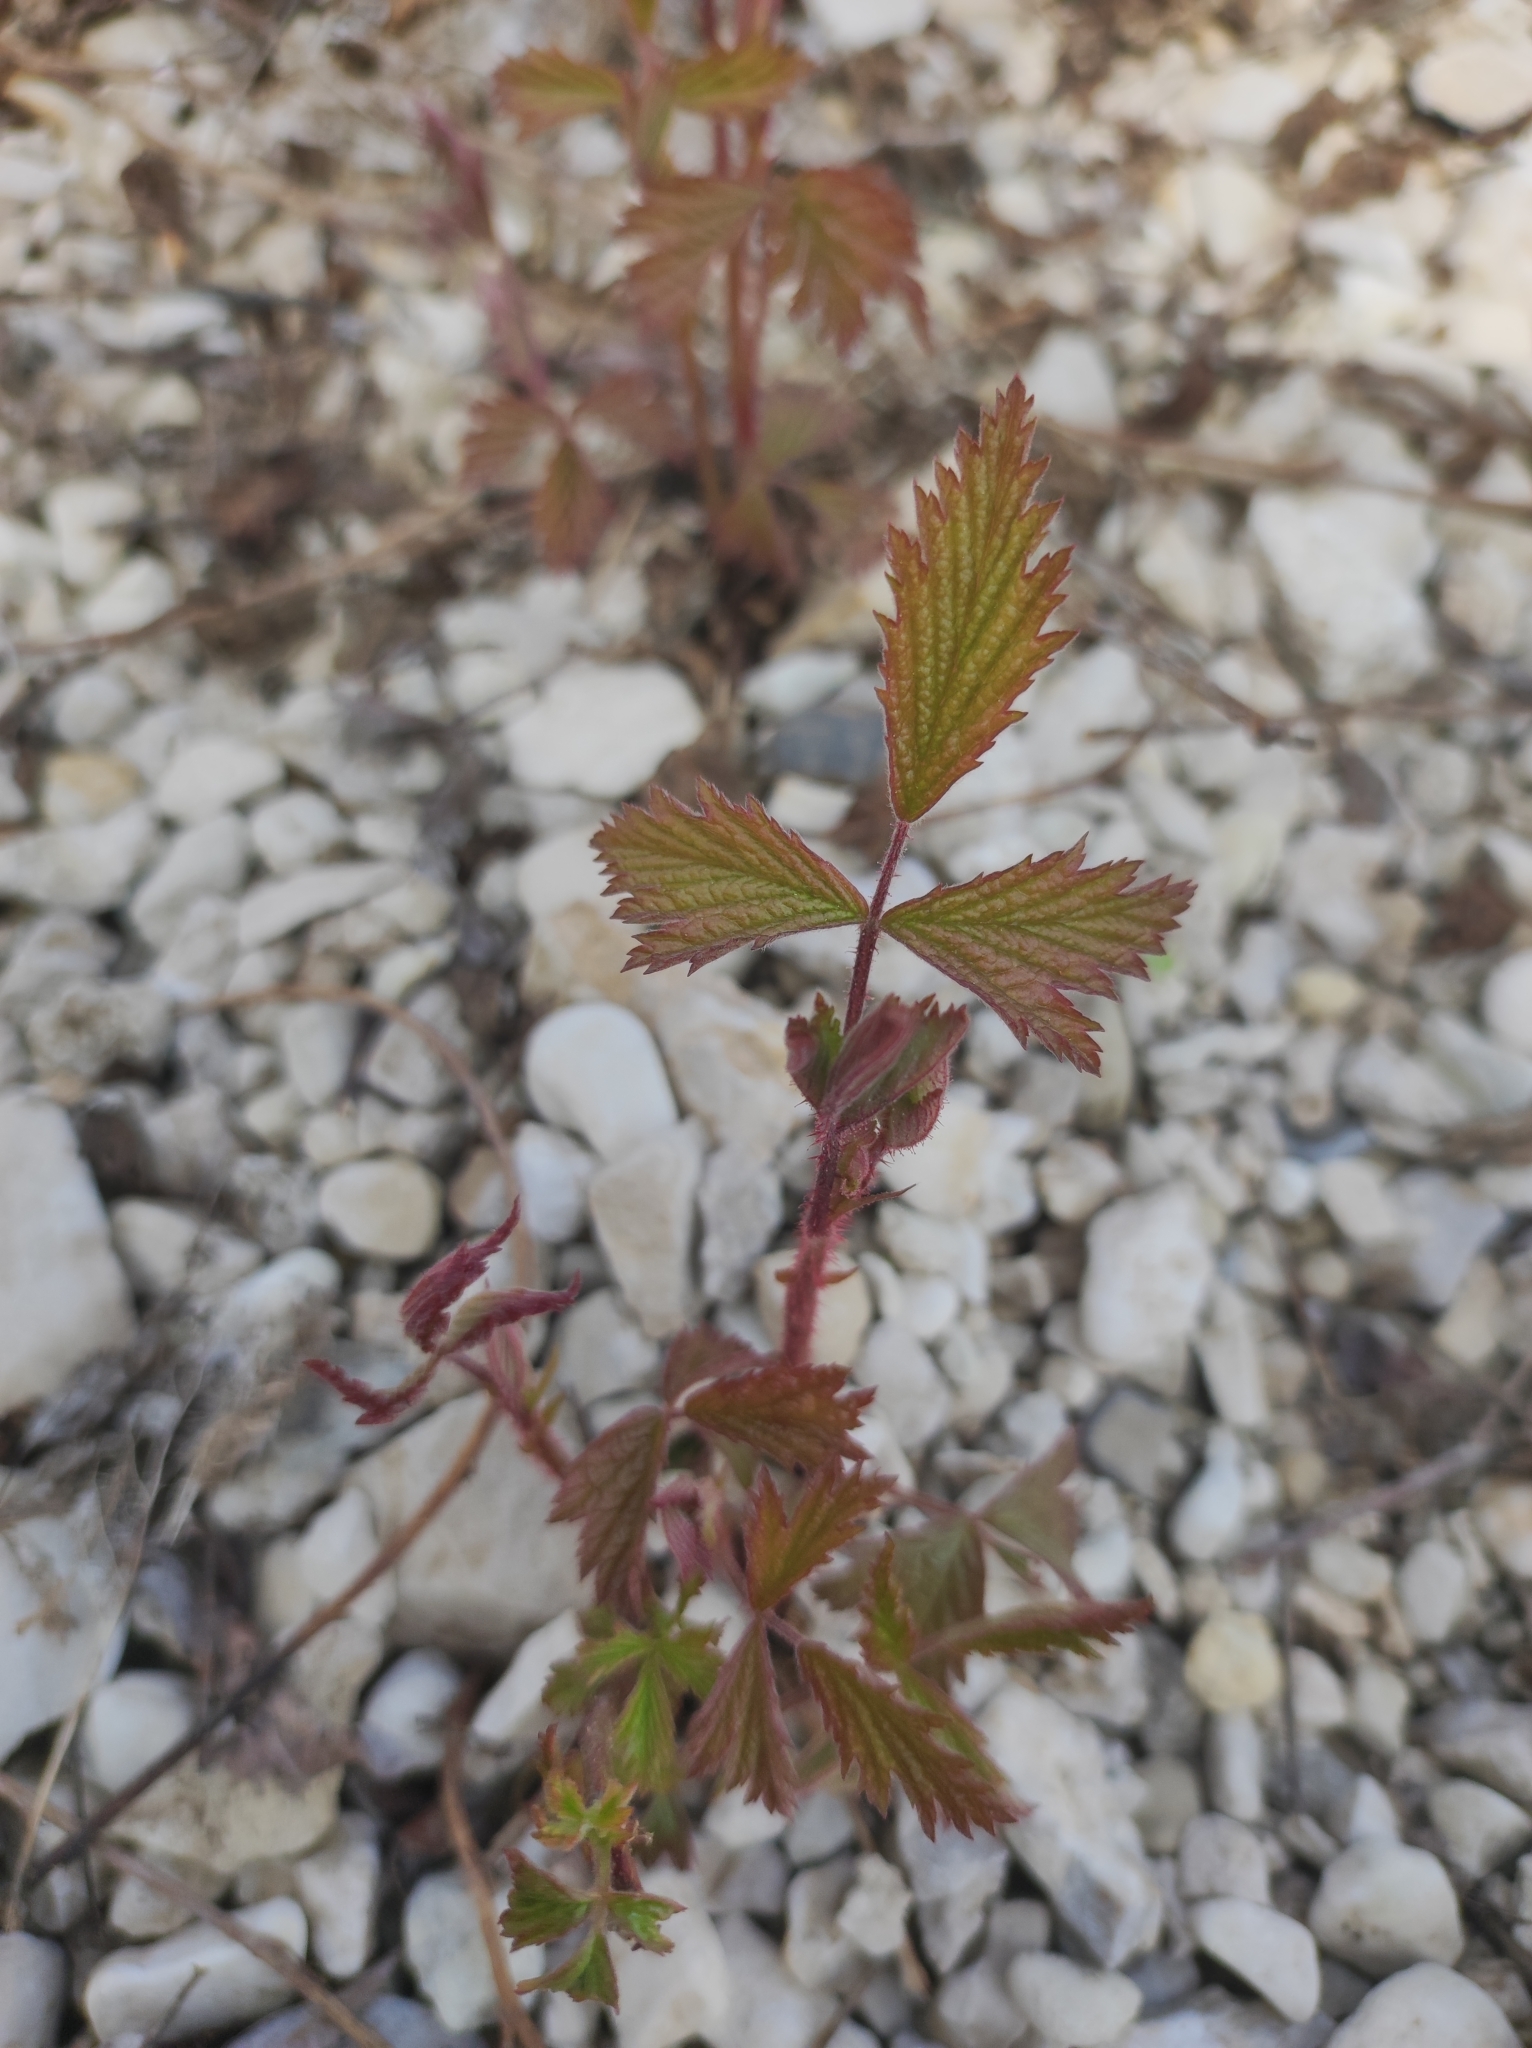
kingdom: Plantae
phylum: Tracheophyta
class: Magnoliopsida
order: Rosales
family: Rosaceae
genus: Rubus
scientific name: Rubus caesius
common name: Dewberry
